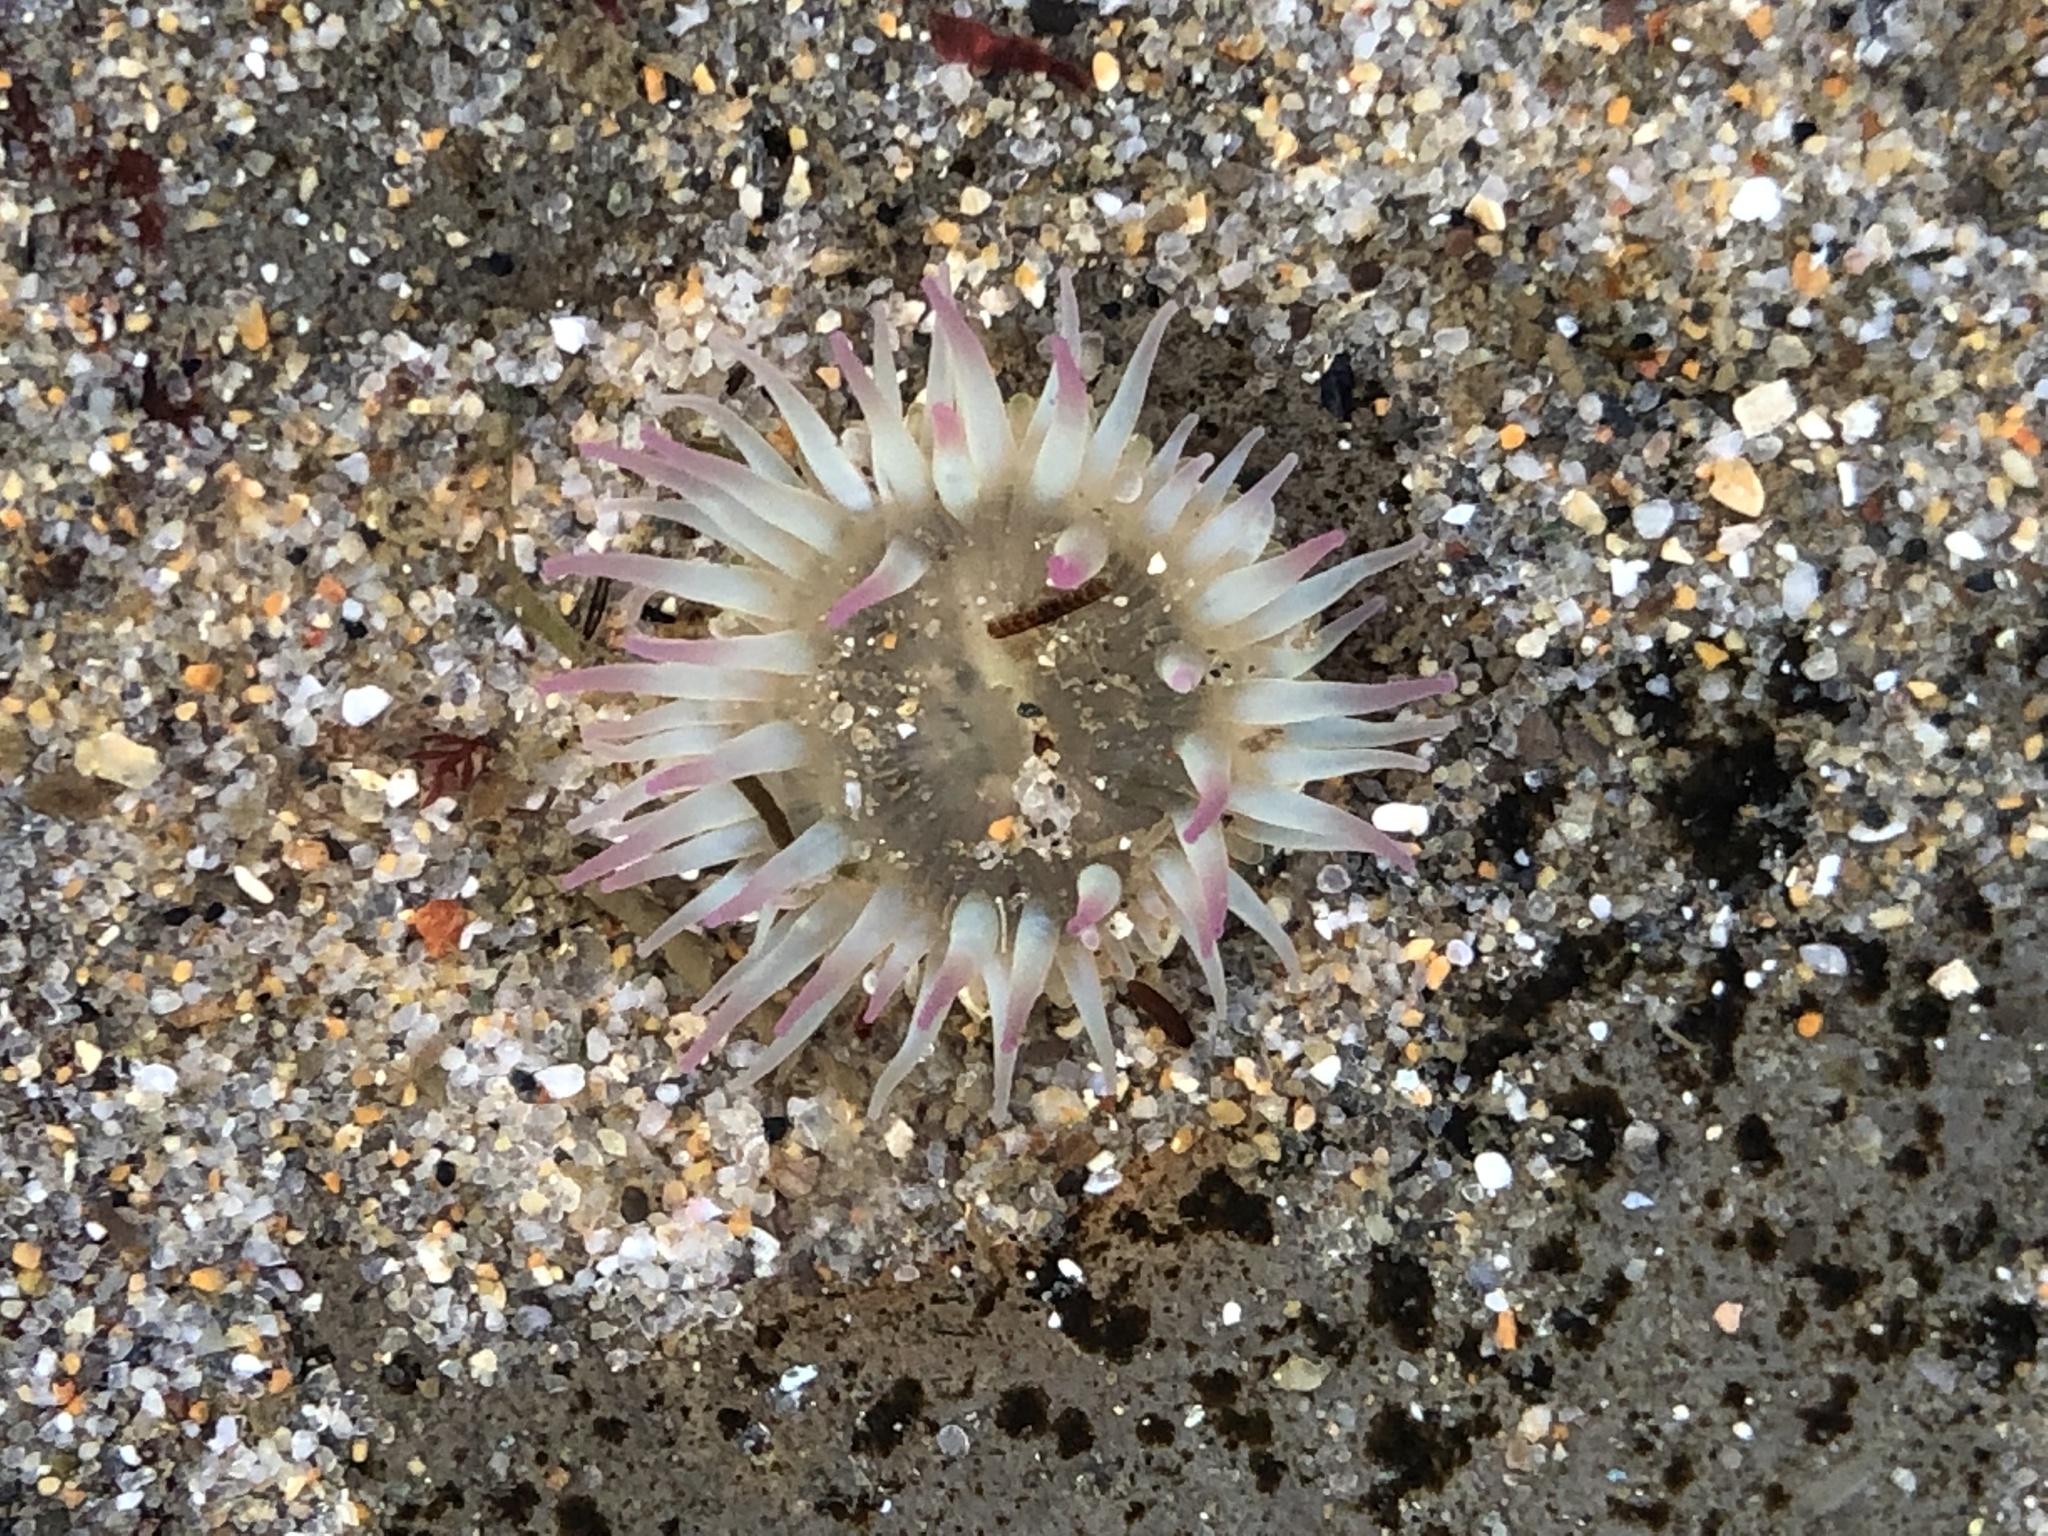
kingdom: Animalia
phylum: Cnidaria
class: Anthozoa
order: Actiniaria
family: Actiniidae
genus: Anthopleura
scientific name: Anthopleura elegantissima
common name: Clonal anemone
